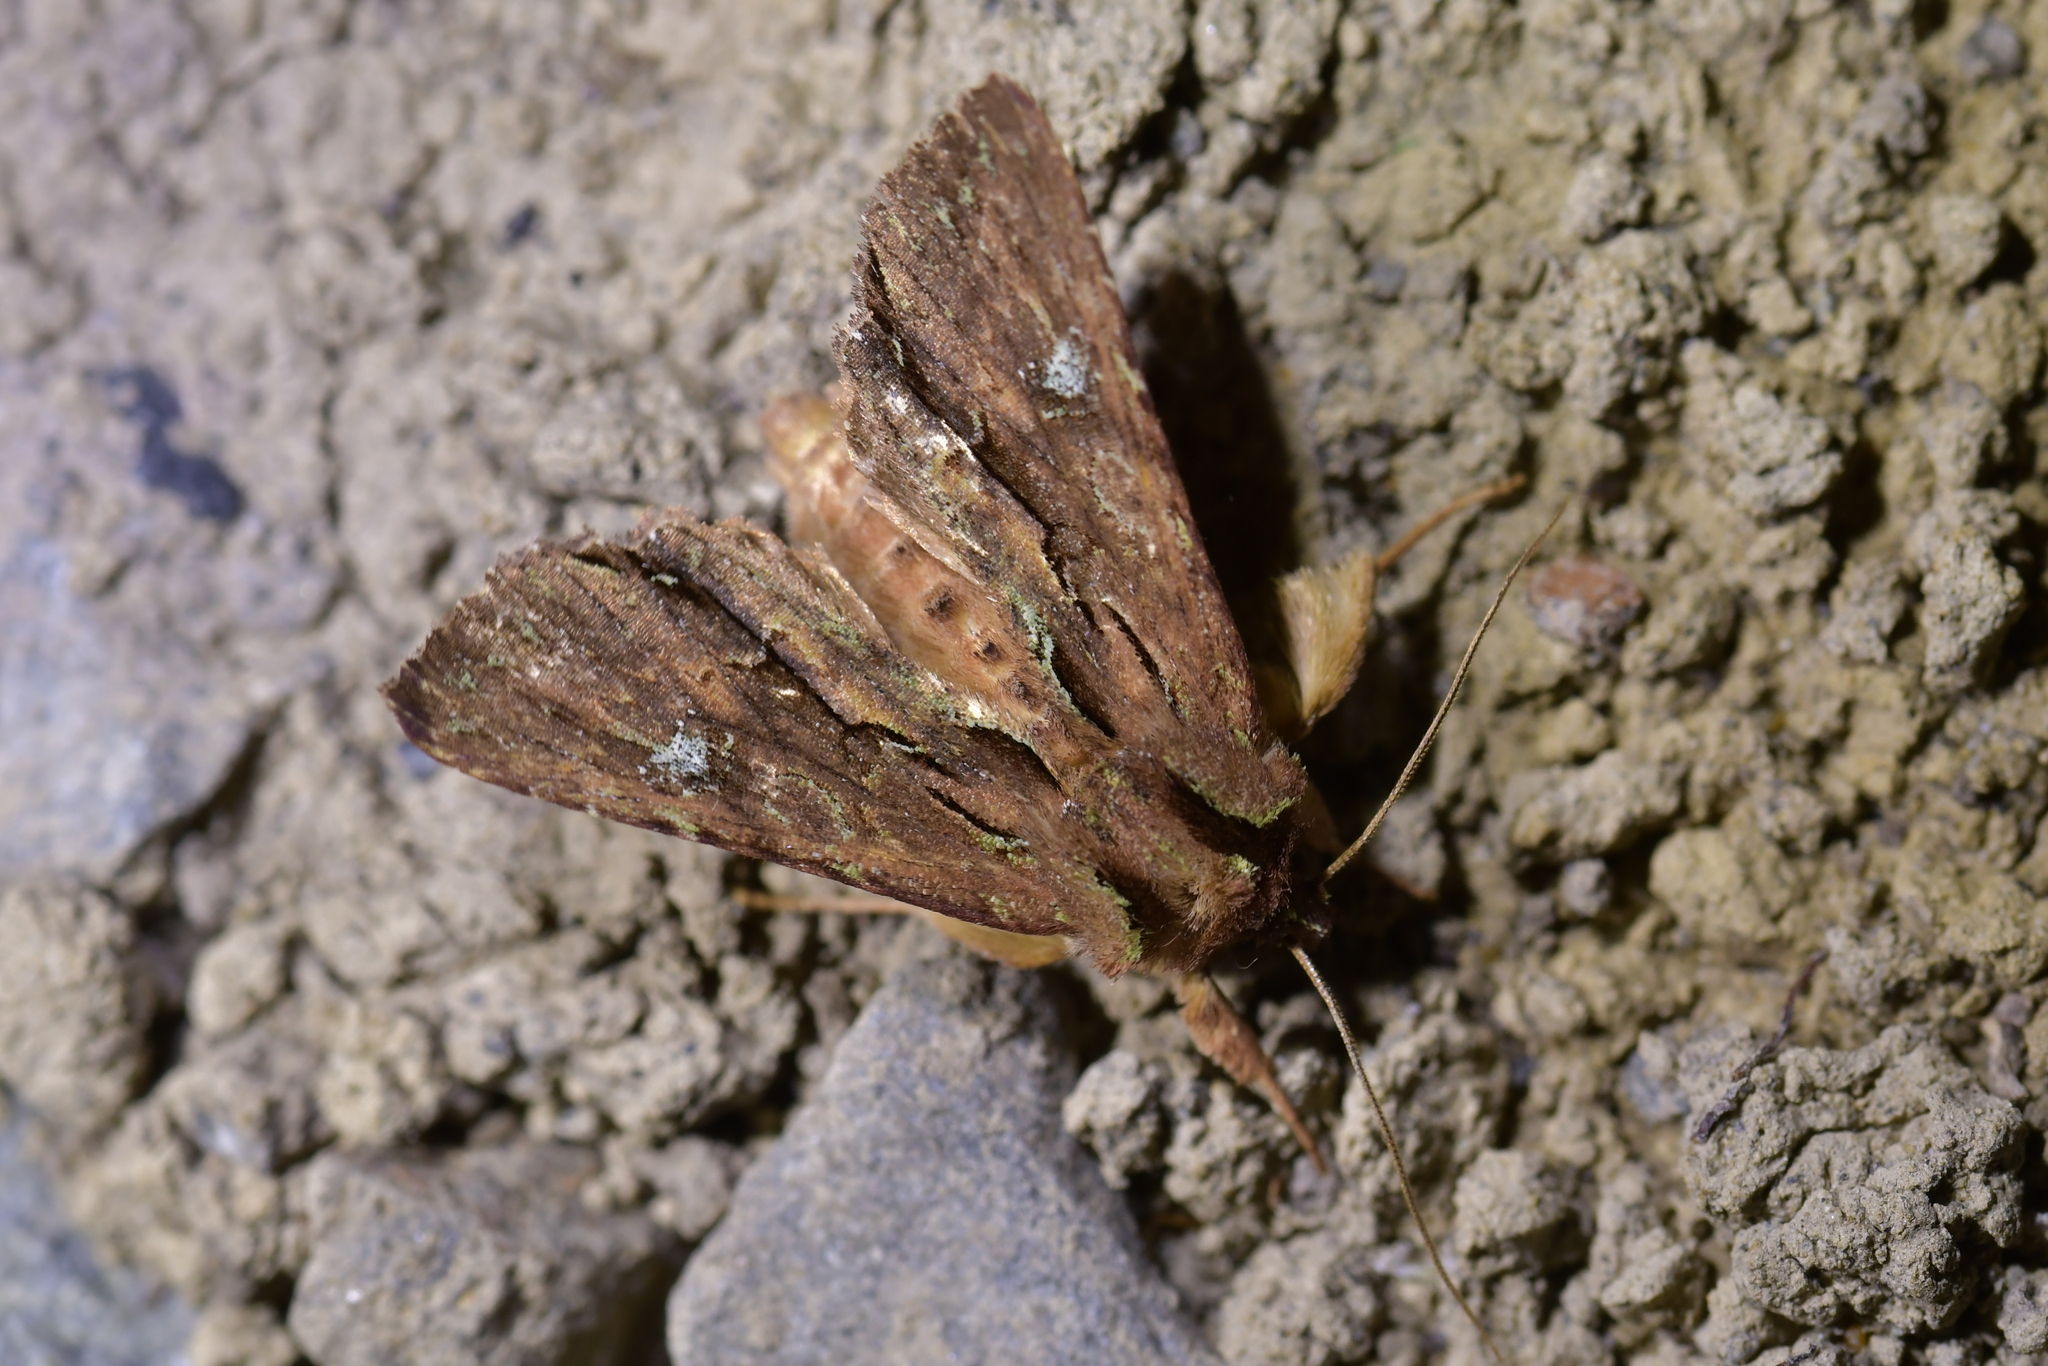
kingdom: Animalia
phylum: Arthropoda
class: Insecta
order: Lepidoptera
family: Noctuidae
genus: Meterana
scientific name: Meterana diatmeta
